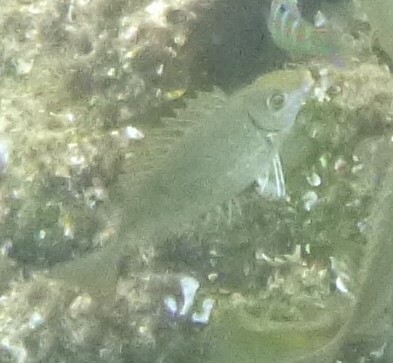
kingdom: Animalia
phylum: Chordata
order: Perciformes
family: Siganidae
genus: Siganus
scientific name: Siganus rivulatus
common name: Marbled spinefoot
